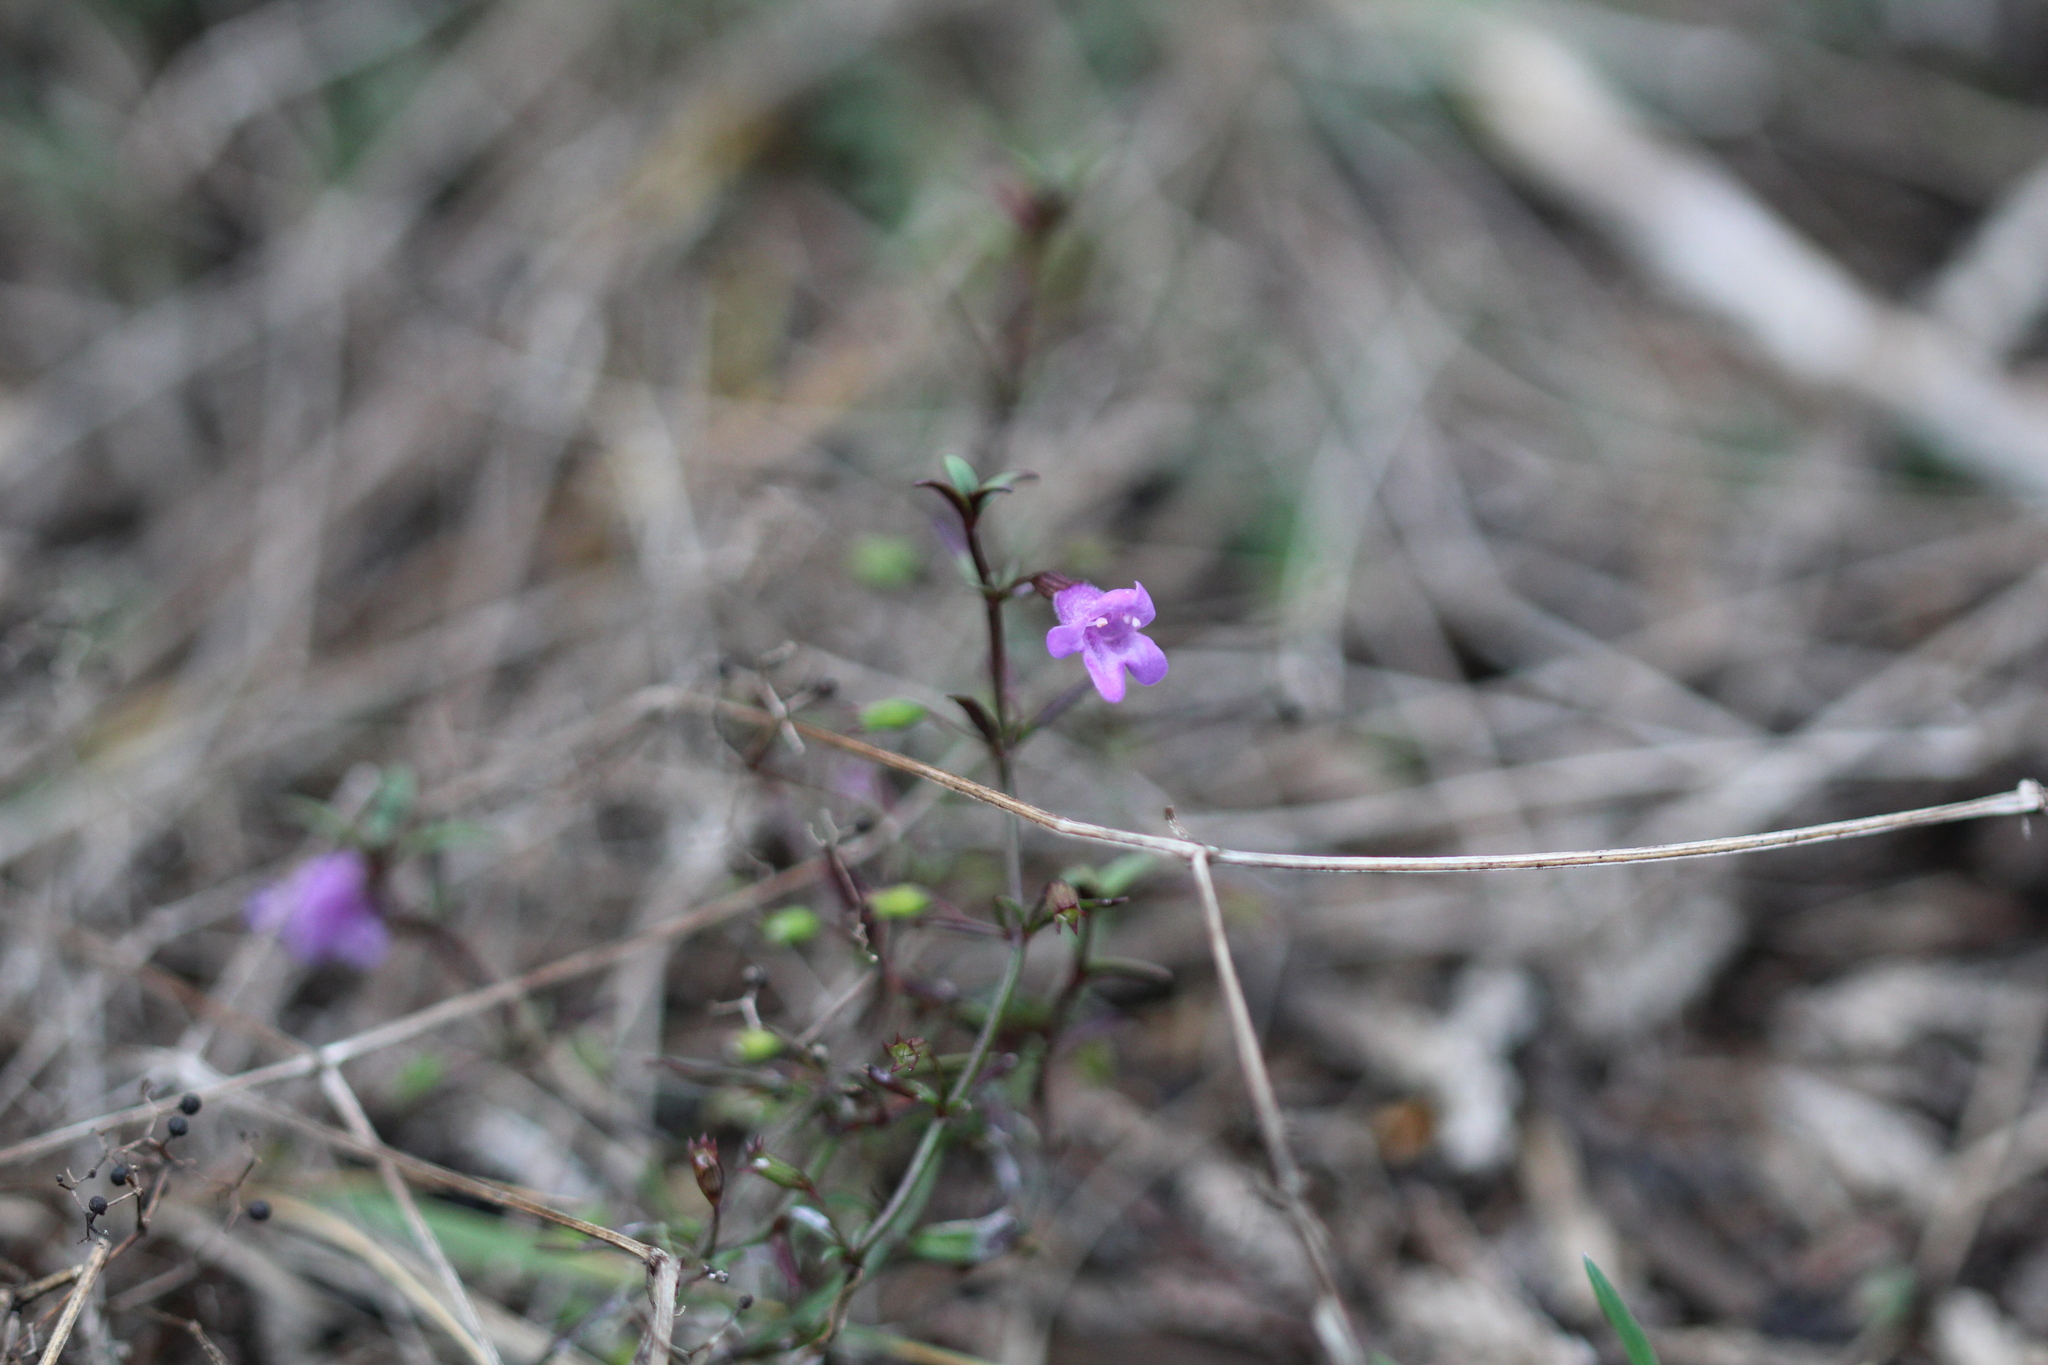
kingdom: Plantae
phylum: Tracheophyta
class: Magnoliopsida
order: Lamiales
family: Lamiaceae
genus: Clinopodium
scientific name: Clinopodium arkansanum
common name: Limestone calamint
